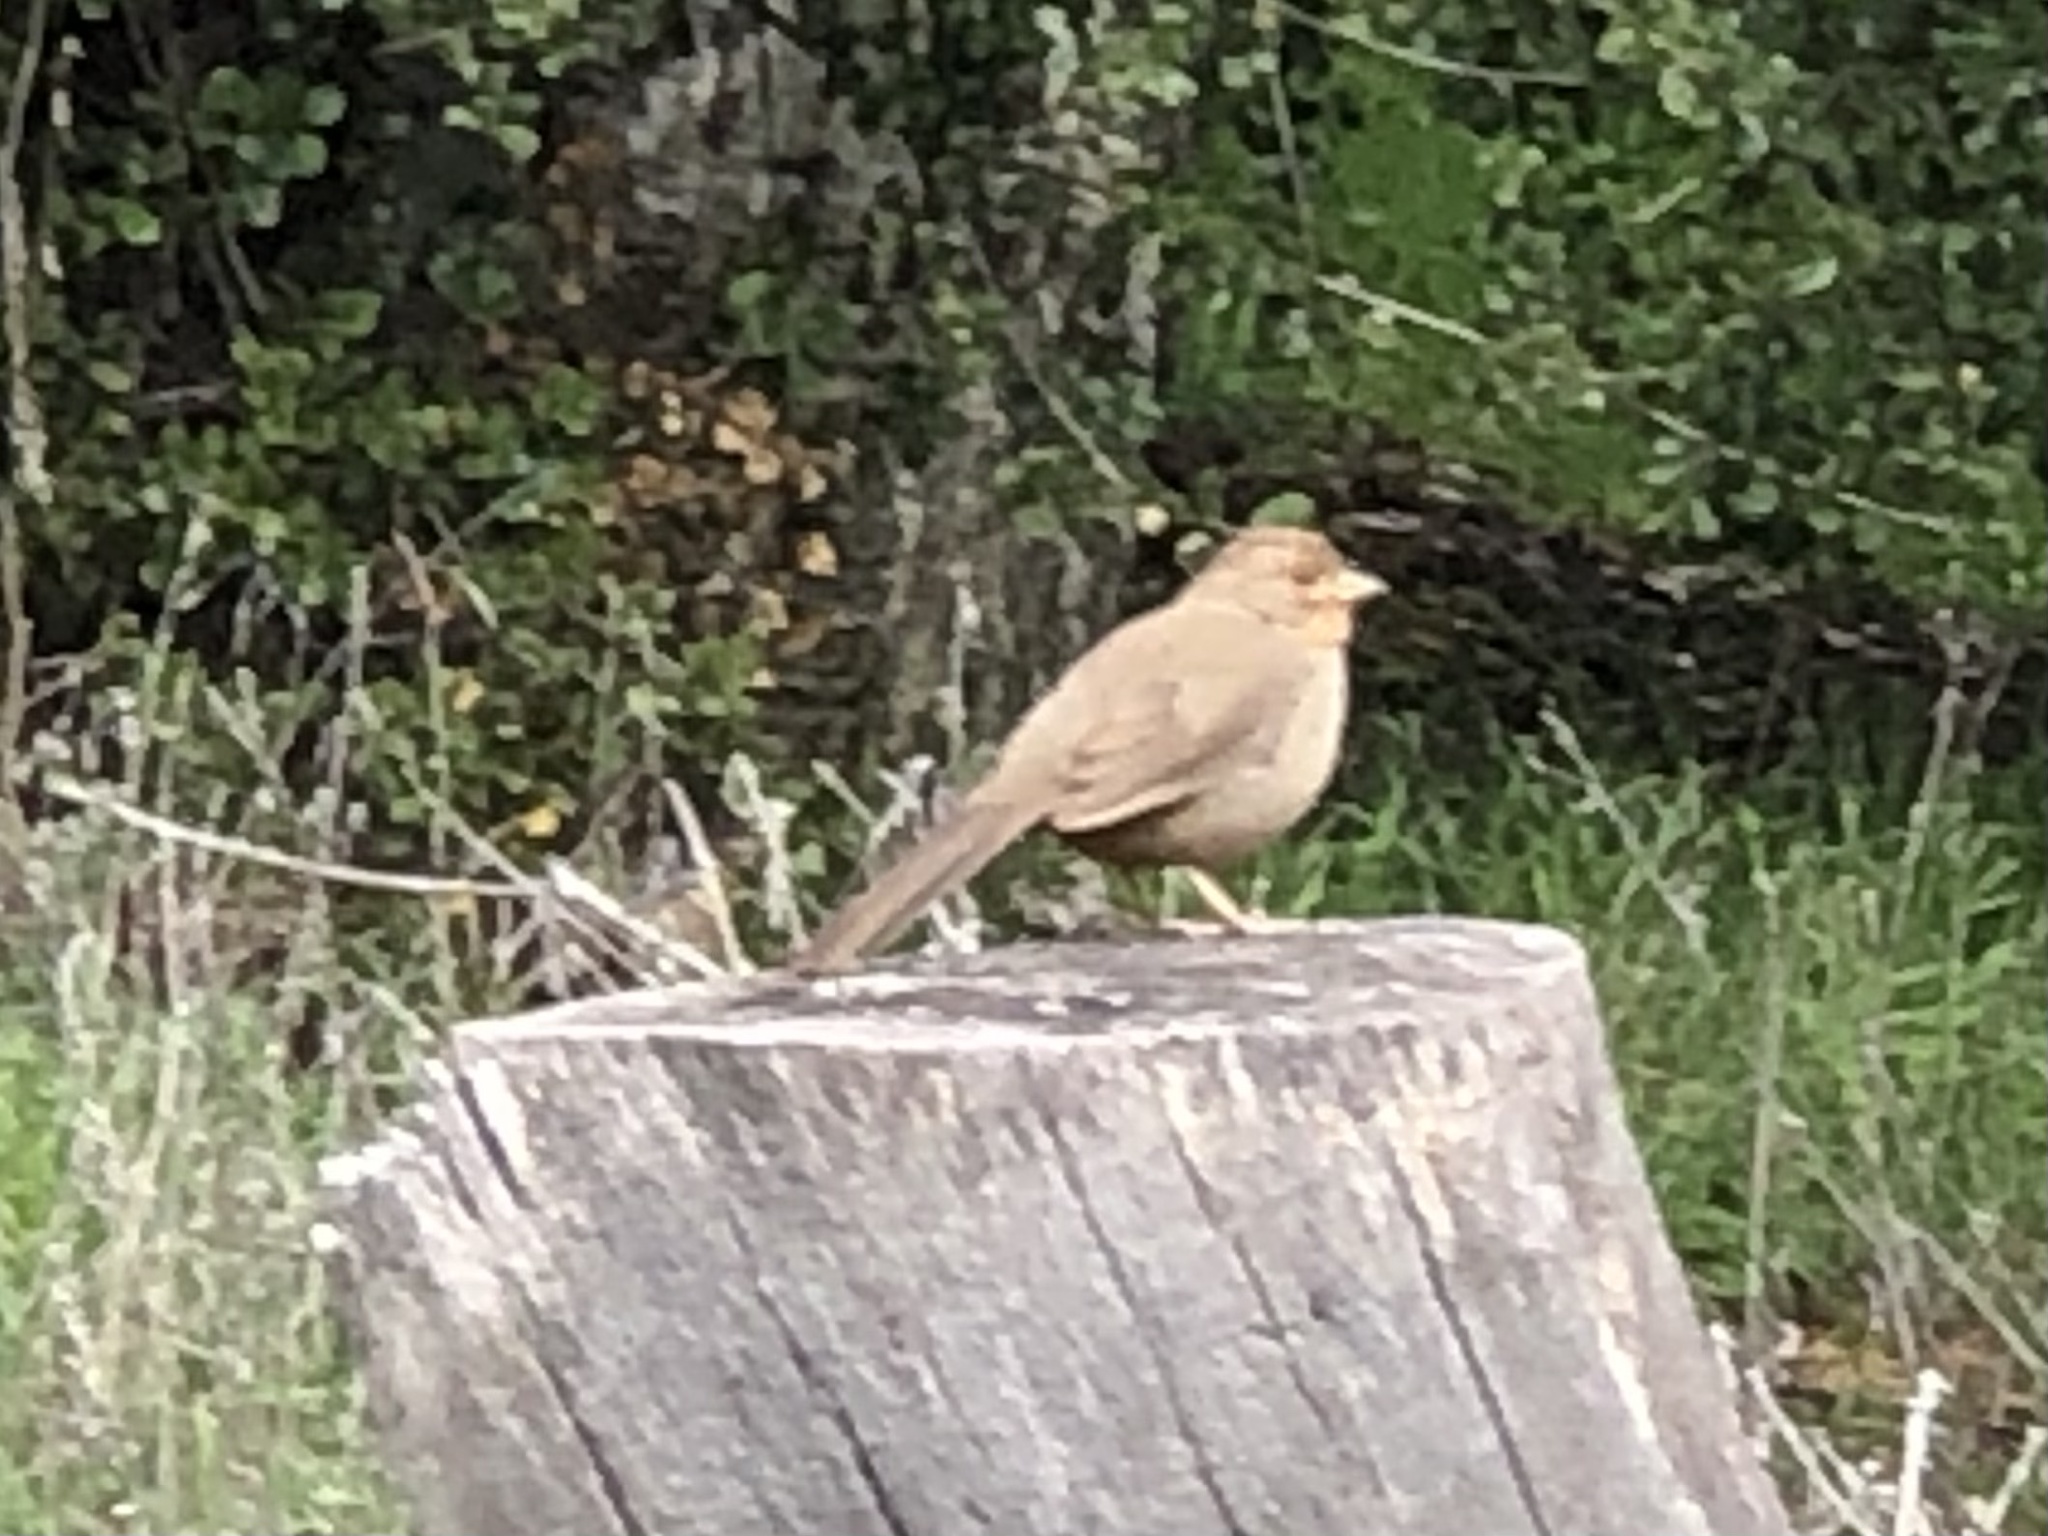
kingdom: Animalia
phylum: Chordata
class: Aves
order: Passeriformes
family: Passerellidae
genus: Melozone
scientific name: Melozone crissalis
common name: California towhee
